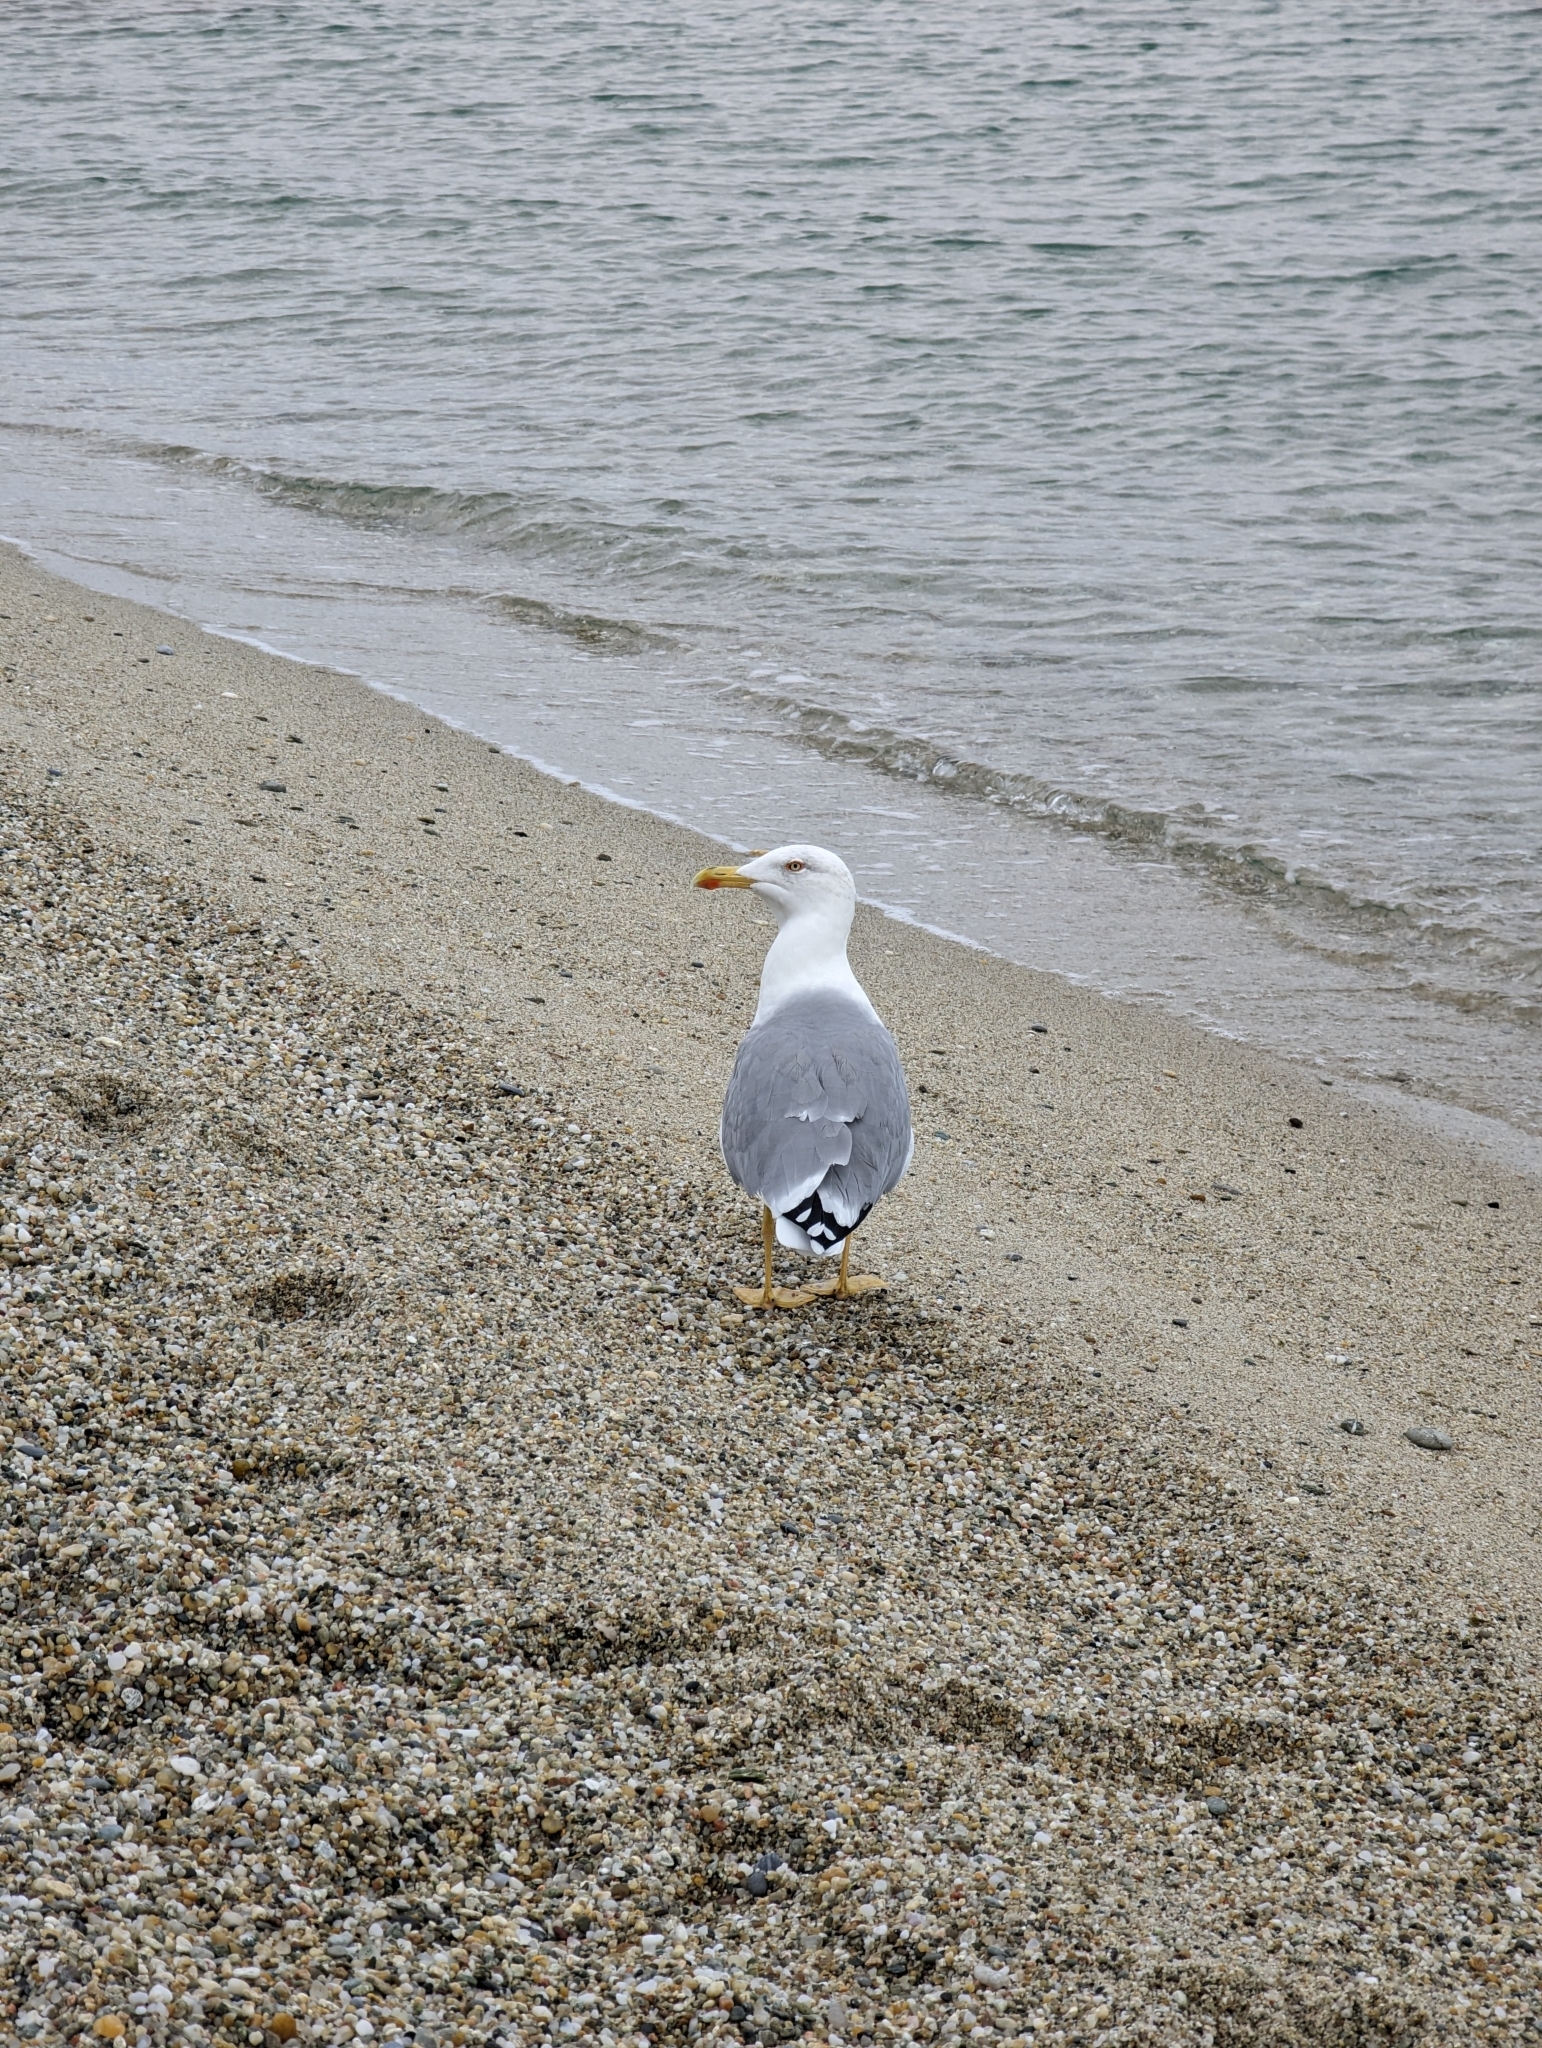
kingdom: Animalia
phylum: Chordata
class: Aves
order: Charadriiformes
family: Laridae
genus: Larus
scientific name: Larus michahellis
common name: Yellow-legged gull
